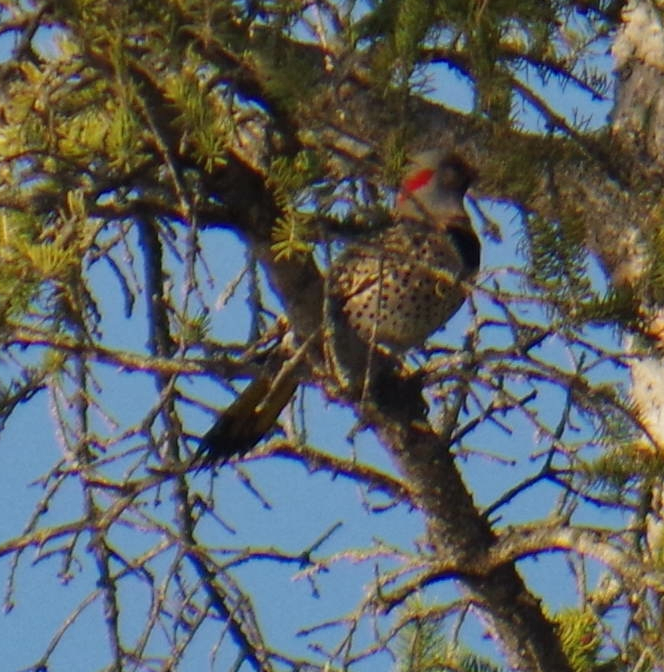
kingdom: Animalia
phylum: Chordata
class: Aves
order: Piciformes
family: Picidae
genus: Colaptes
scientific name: Colaptes auratus
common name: Northern flicker
